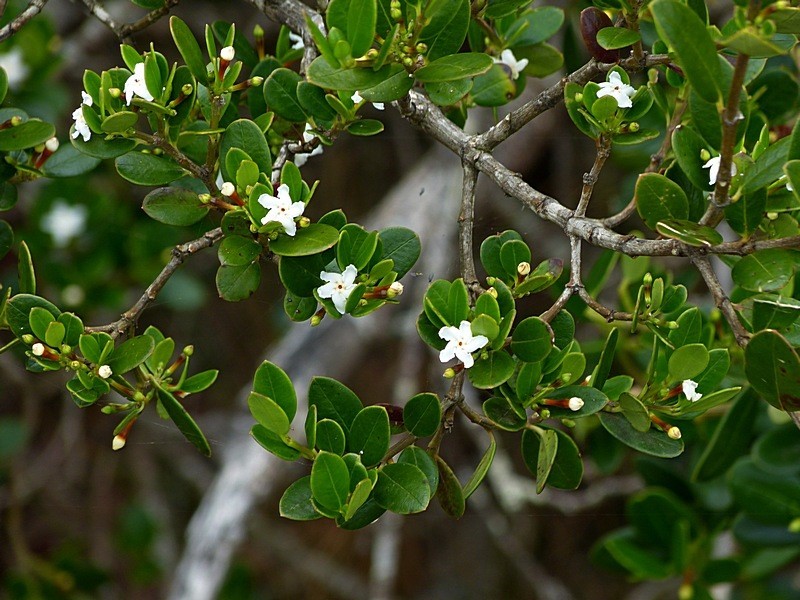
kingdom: Plantae
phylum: Tracheophyta
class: Magnoliopsida
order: Gentianales
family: Apocynaceae
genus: Alyxia
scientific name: Alyxia buxifolia
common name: Dysentery-bush
